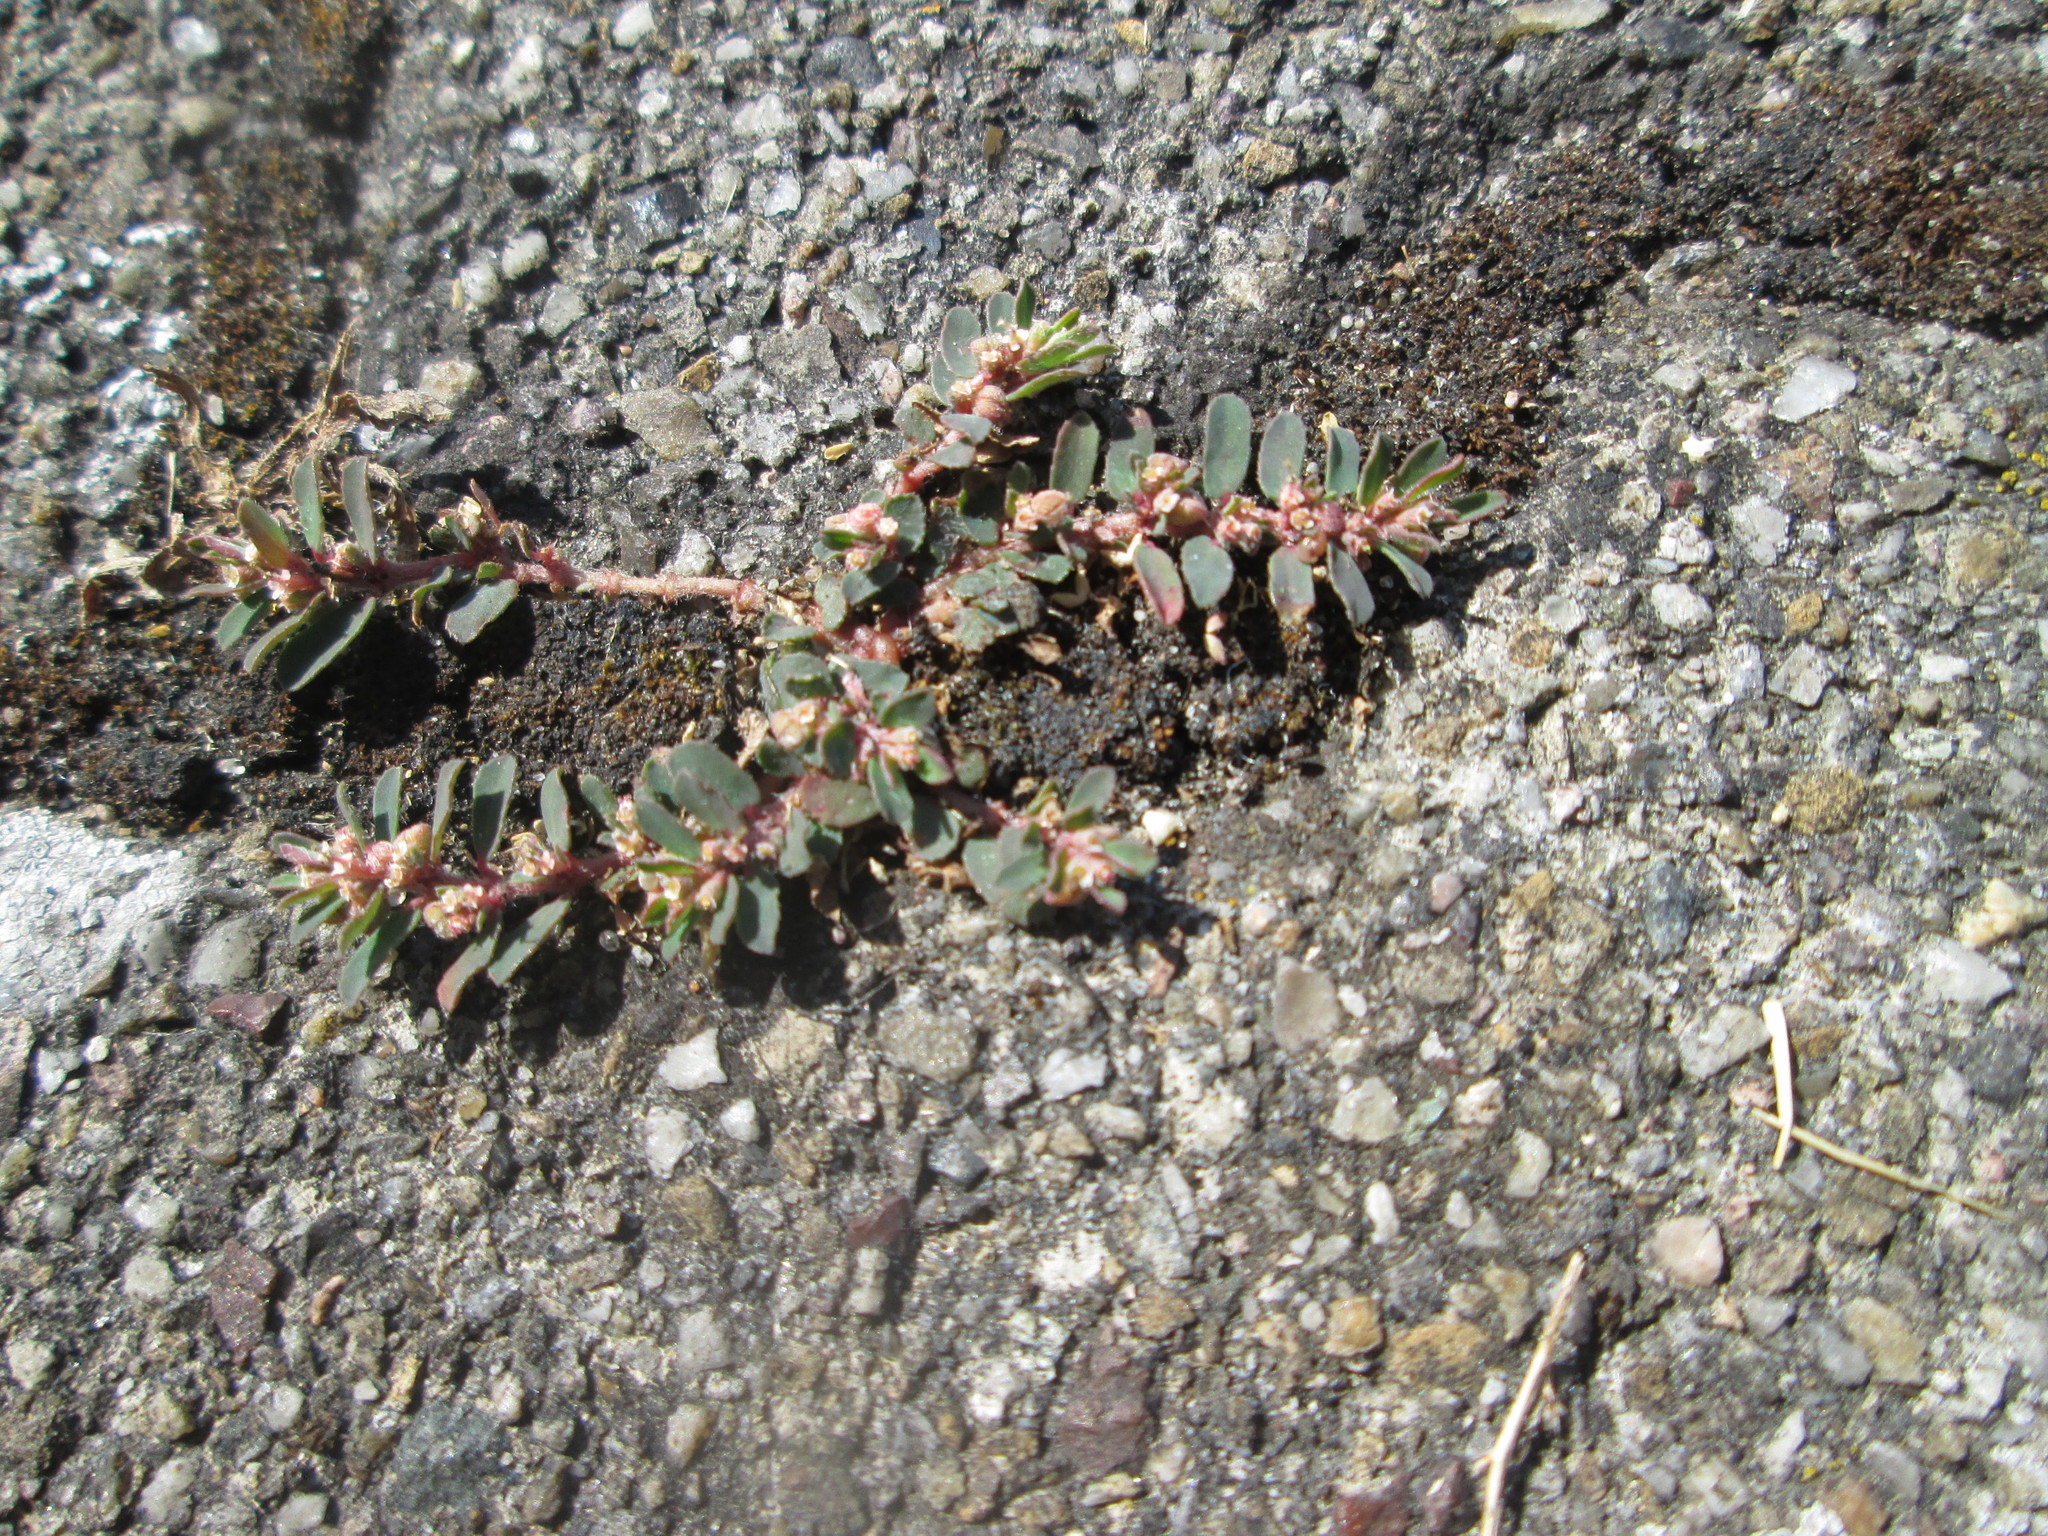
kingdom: Plantae
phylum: Tracheophyta
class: Magnoliopsida
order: Malpighiales
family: Euphorbiaceae
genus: Euphorbia
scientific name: Euphorbia maculata
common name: Spotted spurge
